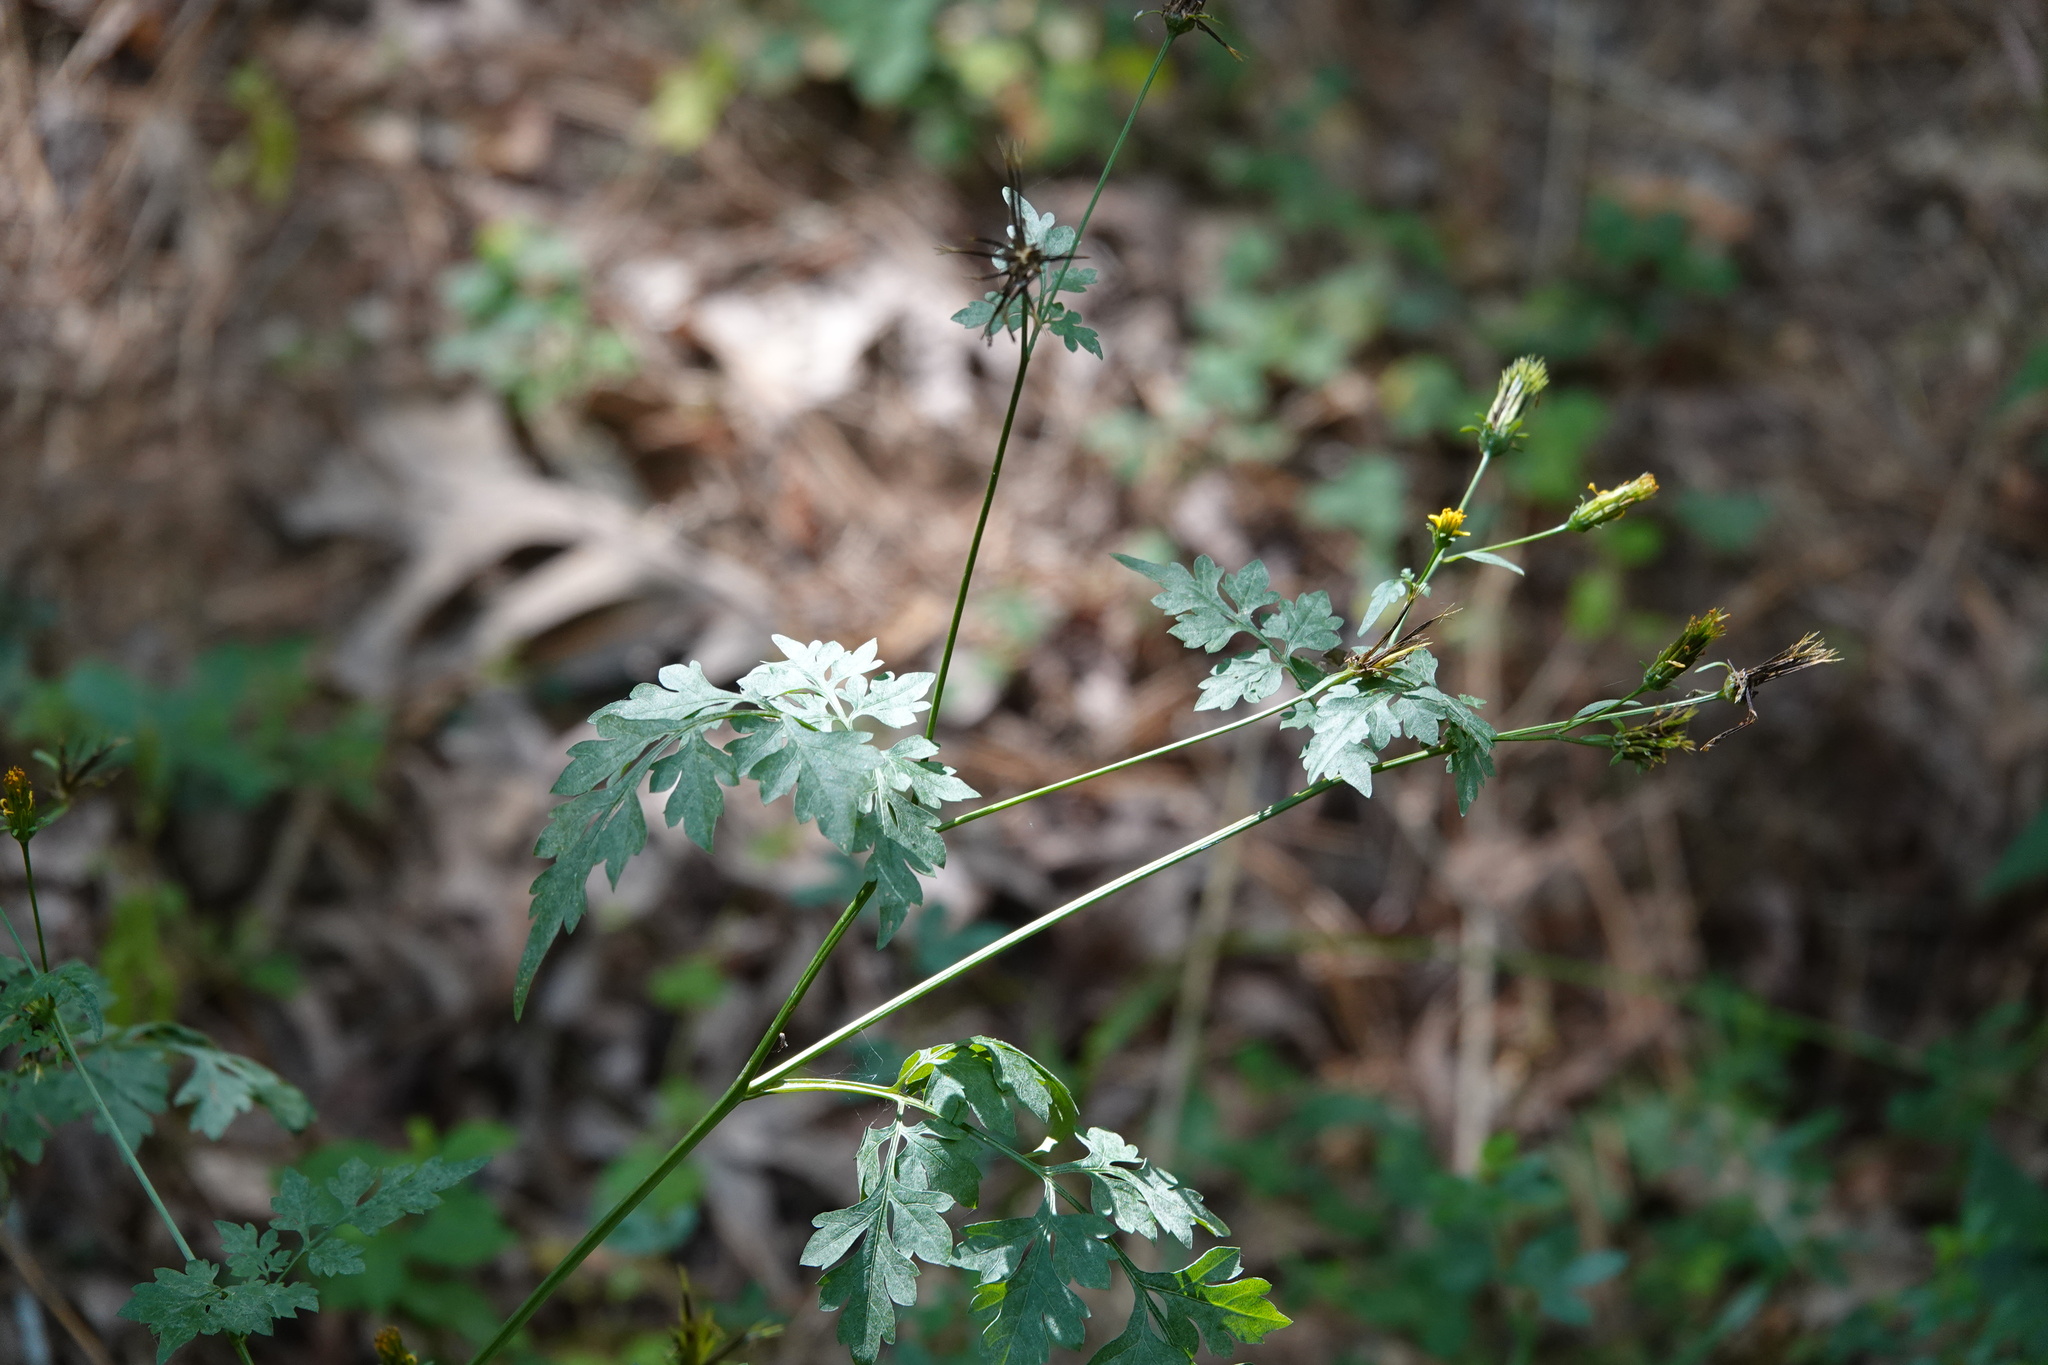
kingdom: Plantae
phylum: Tracheophyta
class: Magnoliopsida
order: Asterales
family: Asteraceae
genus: Bidens
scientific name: Bidens bipinnata
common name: Spanish-needles
